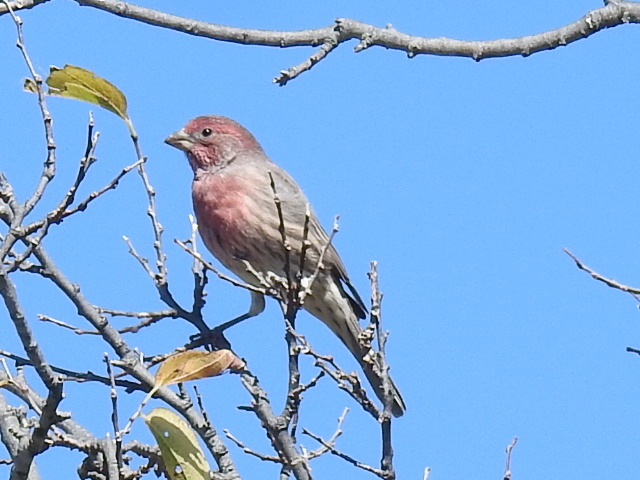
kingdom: Animalia
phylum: Chordata
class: Aves
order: Passeriformes
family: Fringillidae
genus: Haemorhous
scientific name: Haemorhous mexicanus
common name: House finch
